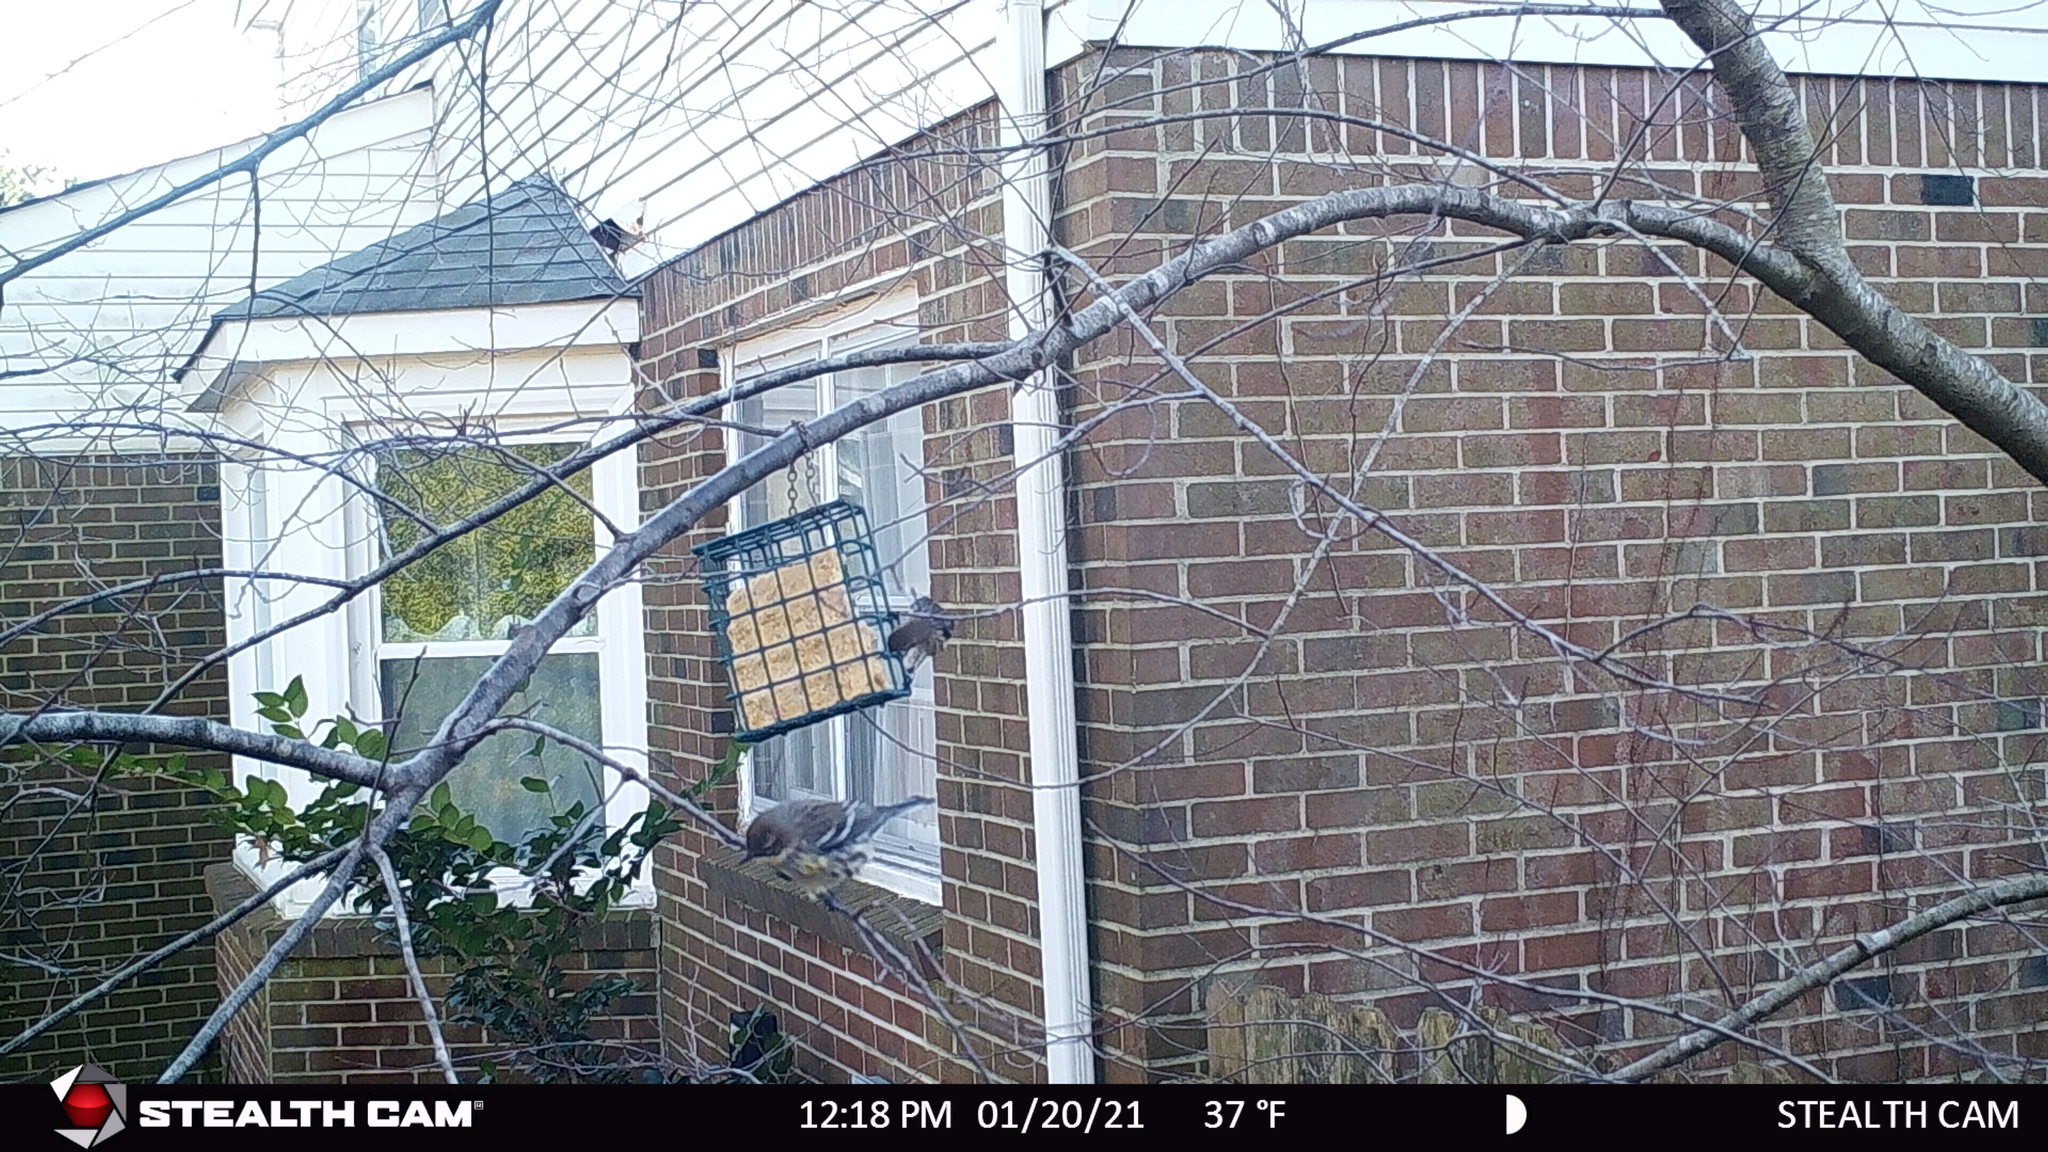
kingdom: Animalia
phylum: Chordata
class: Aves
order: Passeriformes
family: Parulidae
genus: Setophaga
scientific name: Setophaga coronata
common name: Myrtle warbler
